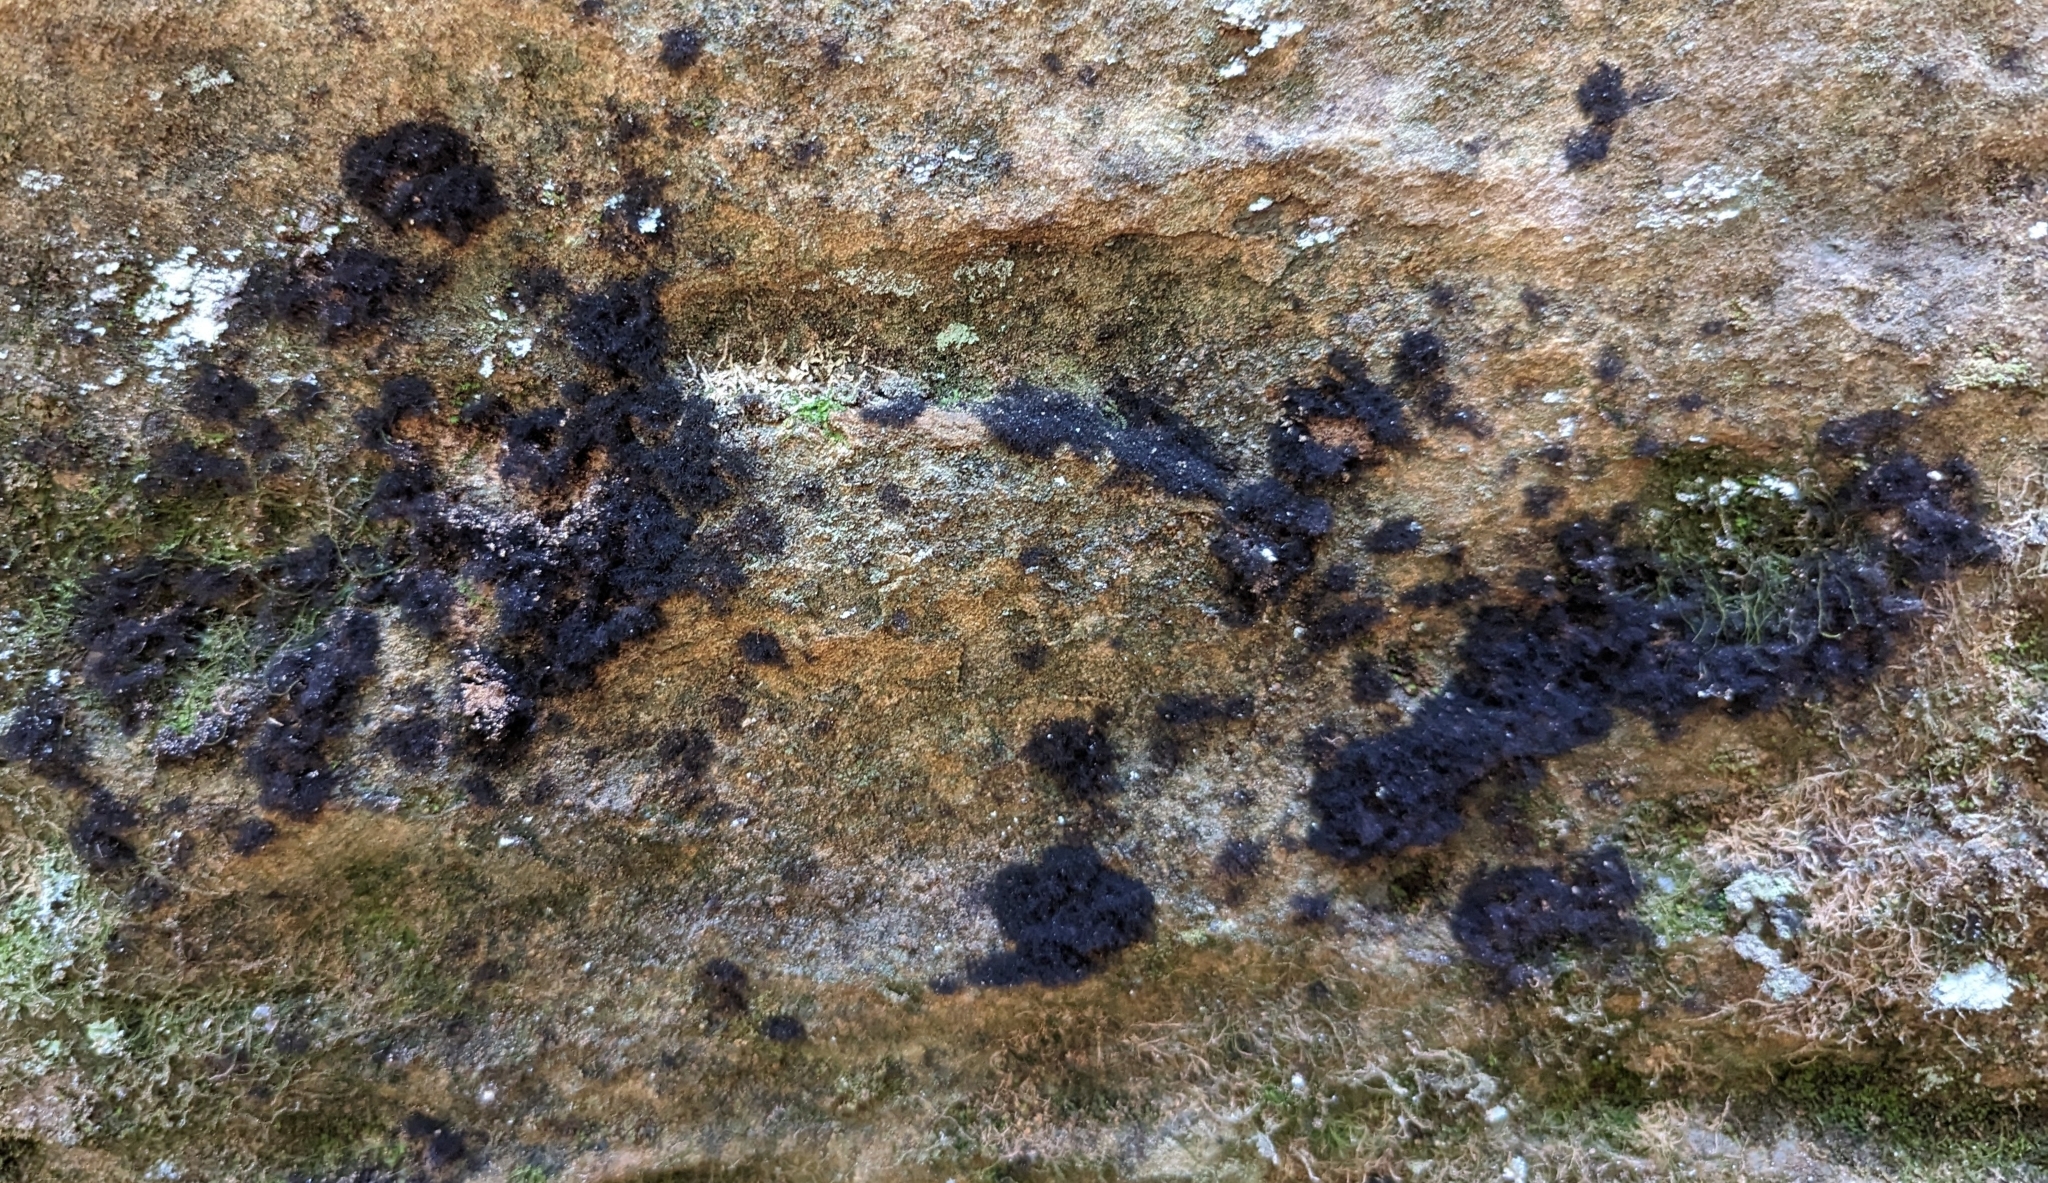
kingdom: Fungi
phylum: Ascomycota
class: Eurotiomycetes
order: Chaetothyriales
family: Herpotrichiellaceae
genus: Rhacodiopsis
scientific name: Rhacodiopsis rupestris
